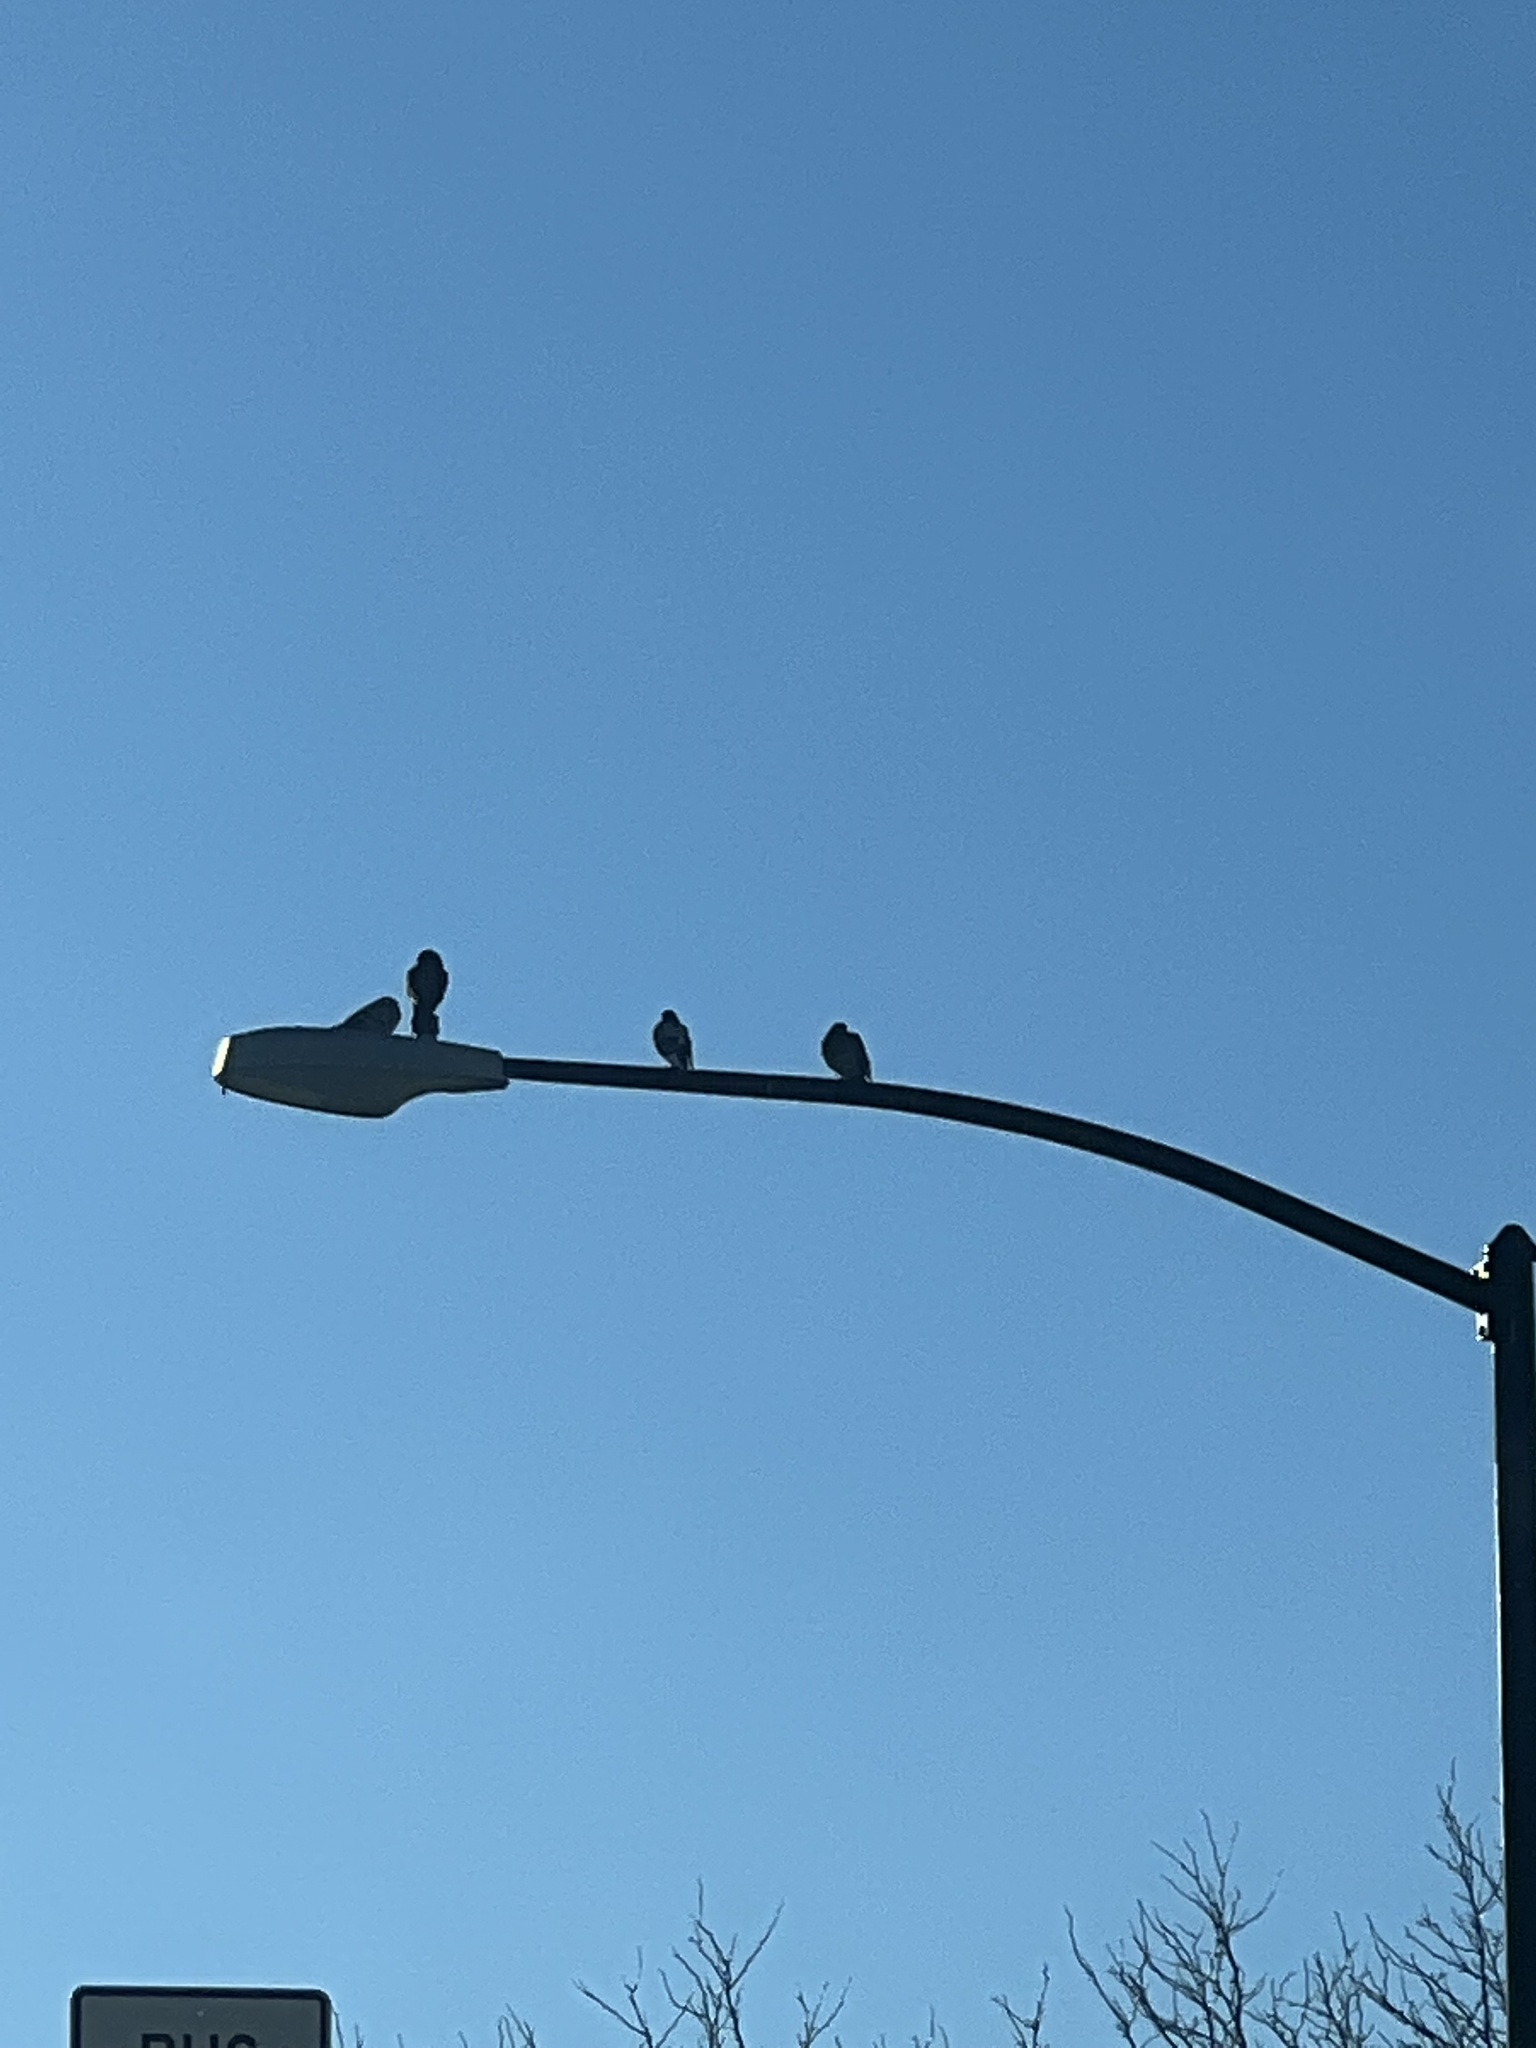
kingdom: Animalia
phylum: Chordata
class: Aves
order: Columbiformes
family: Columbidae
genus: Columba
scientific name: Columba livia
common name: Rock pigeon
